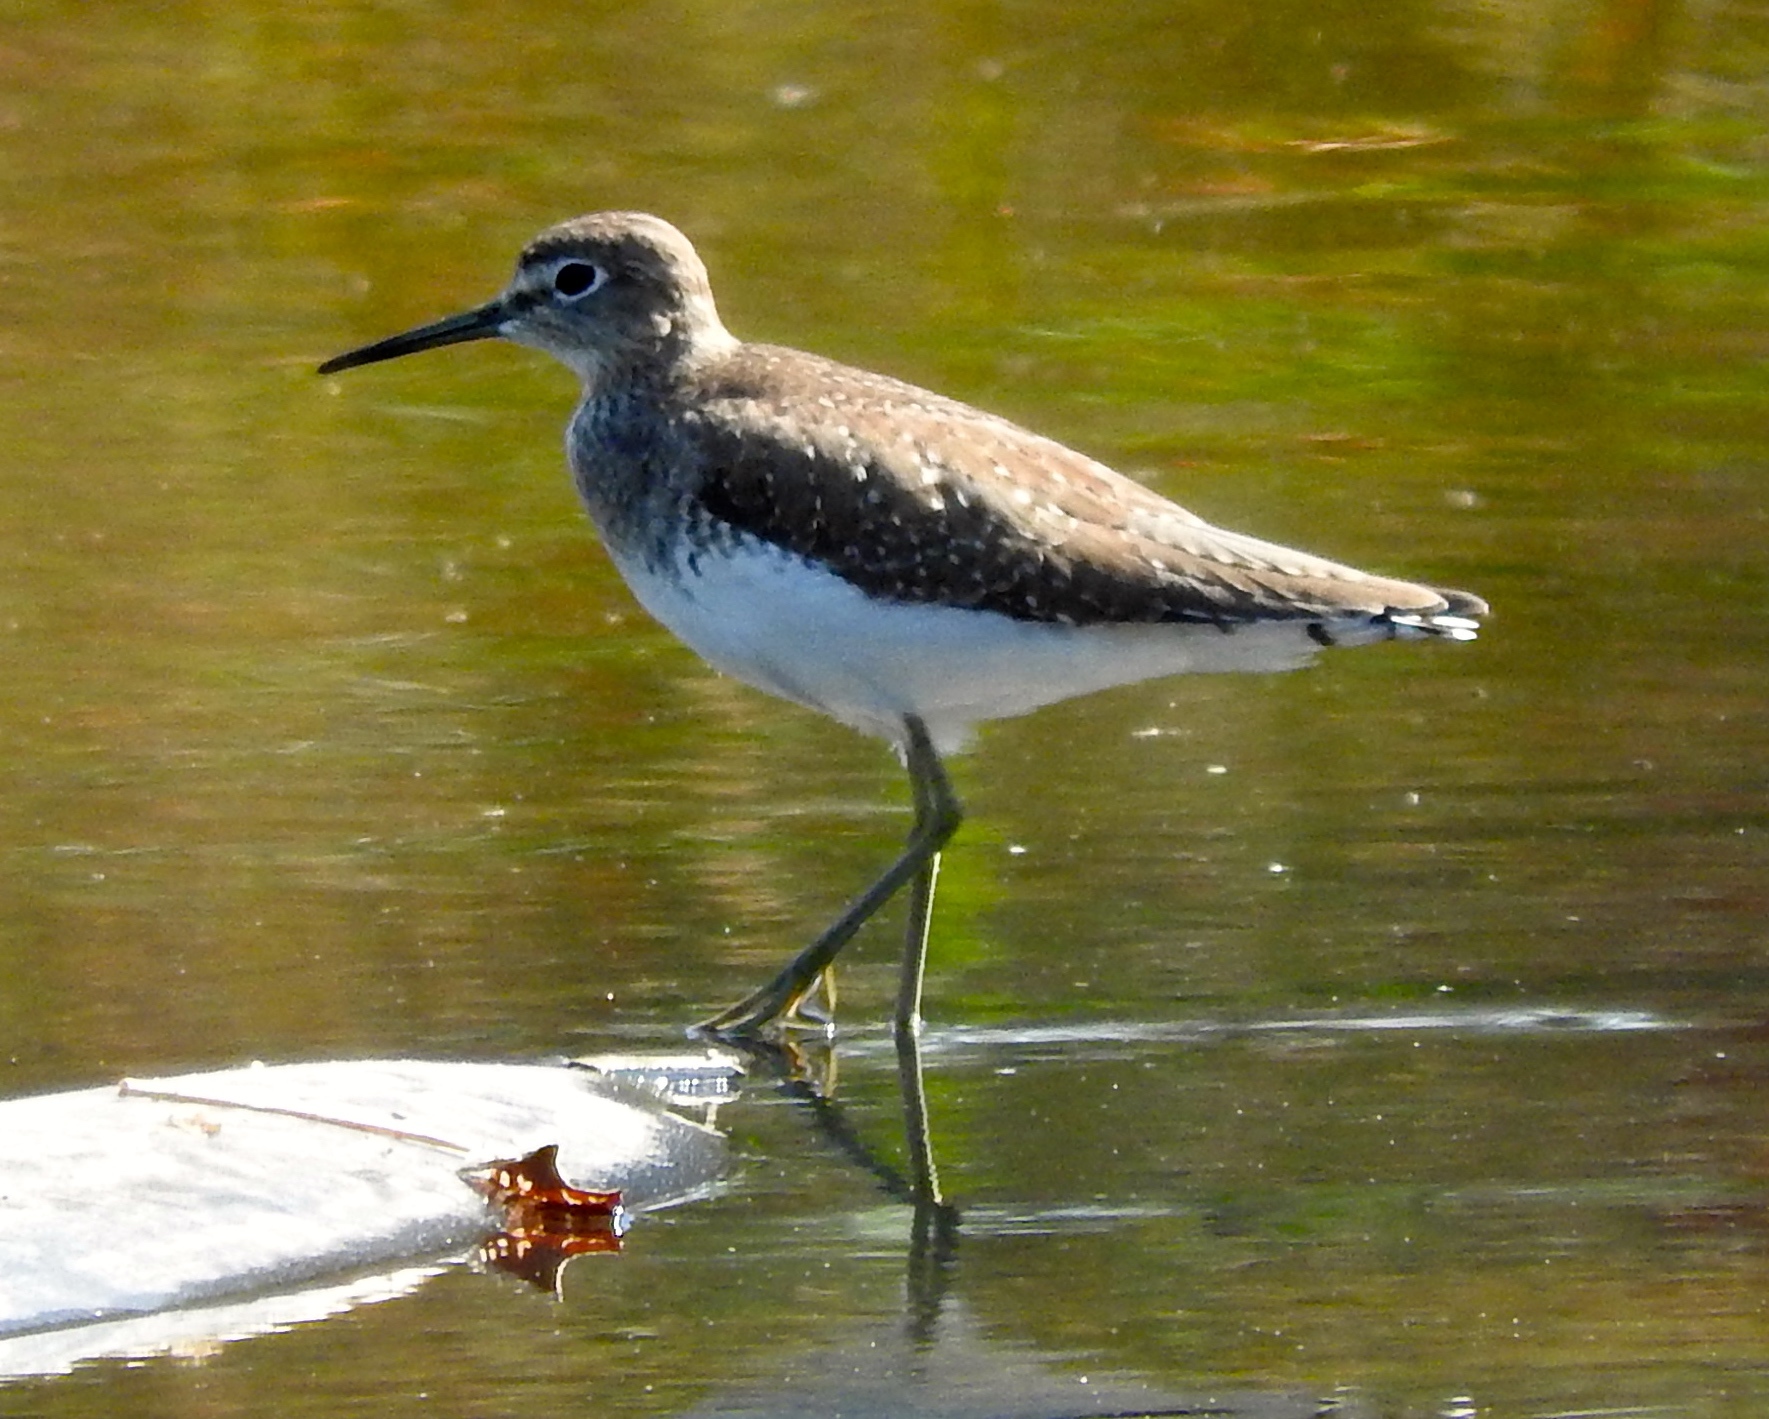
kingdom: Animalia
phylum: Chordata
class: Aves
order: Charadriiformes
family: Scolopacidae
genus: Tringa
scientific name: Tringa solitaria
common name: Solitary sandpiper
